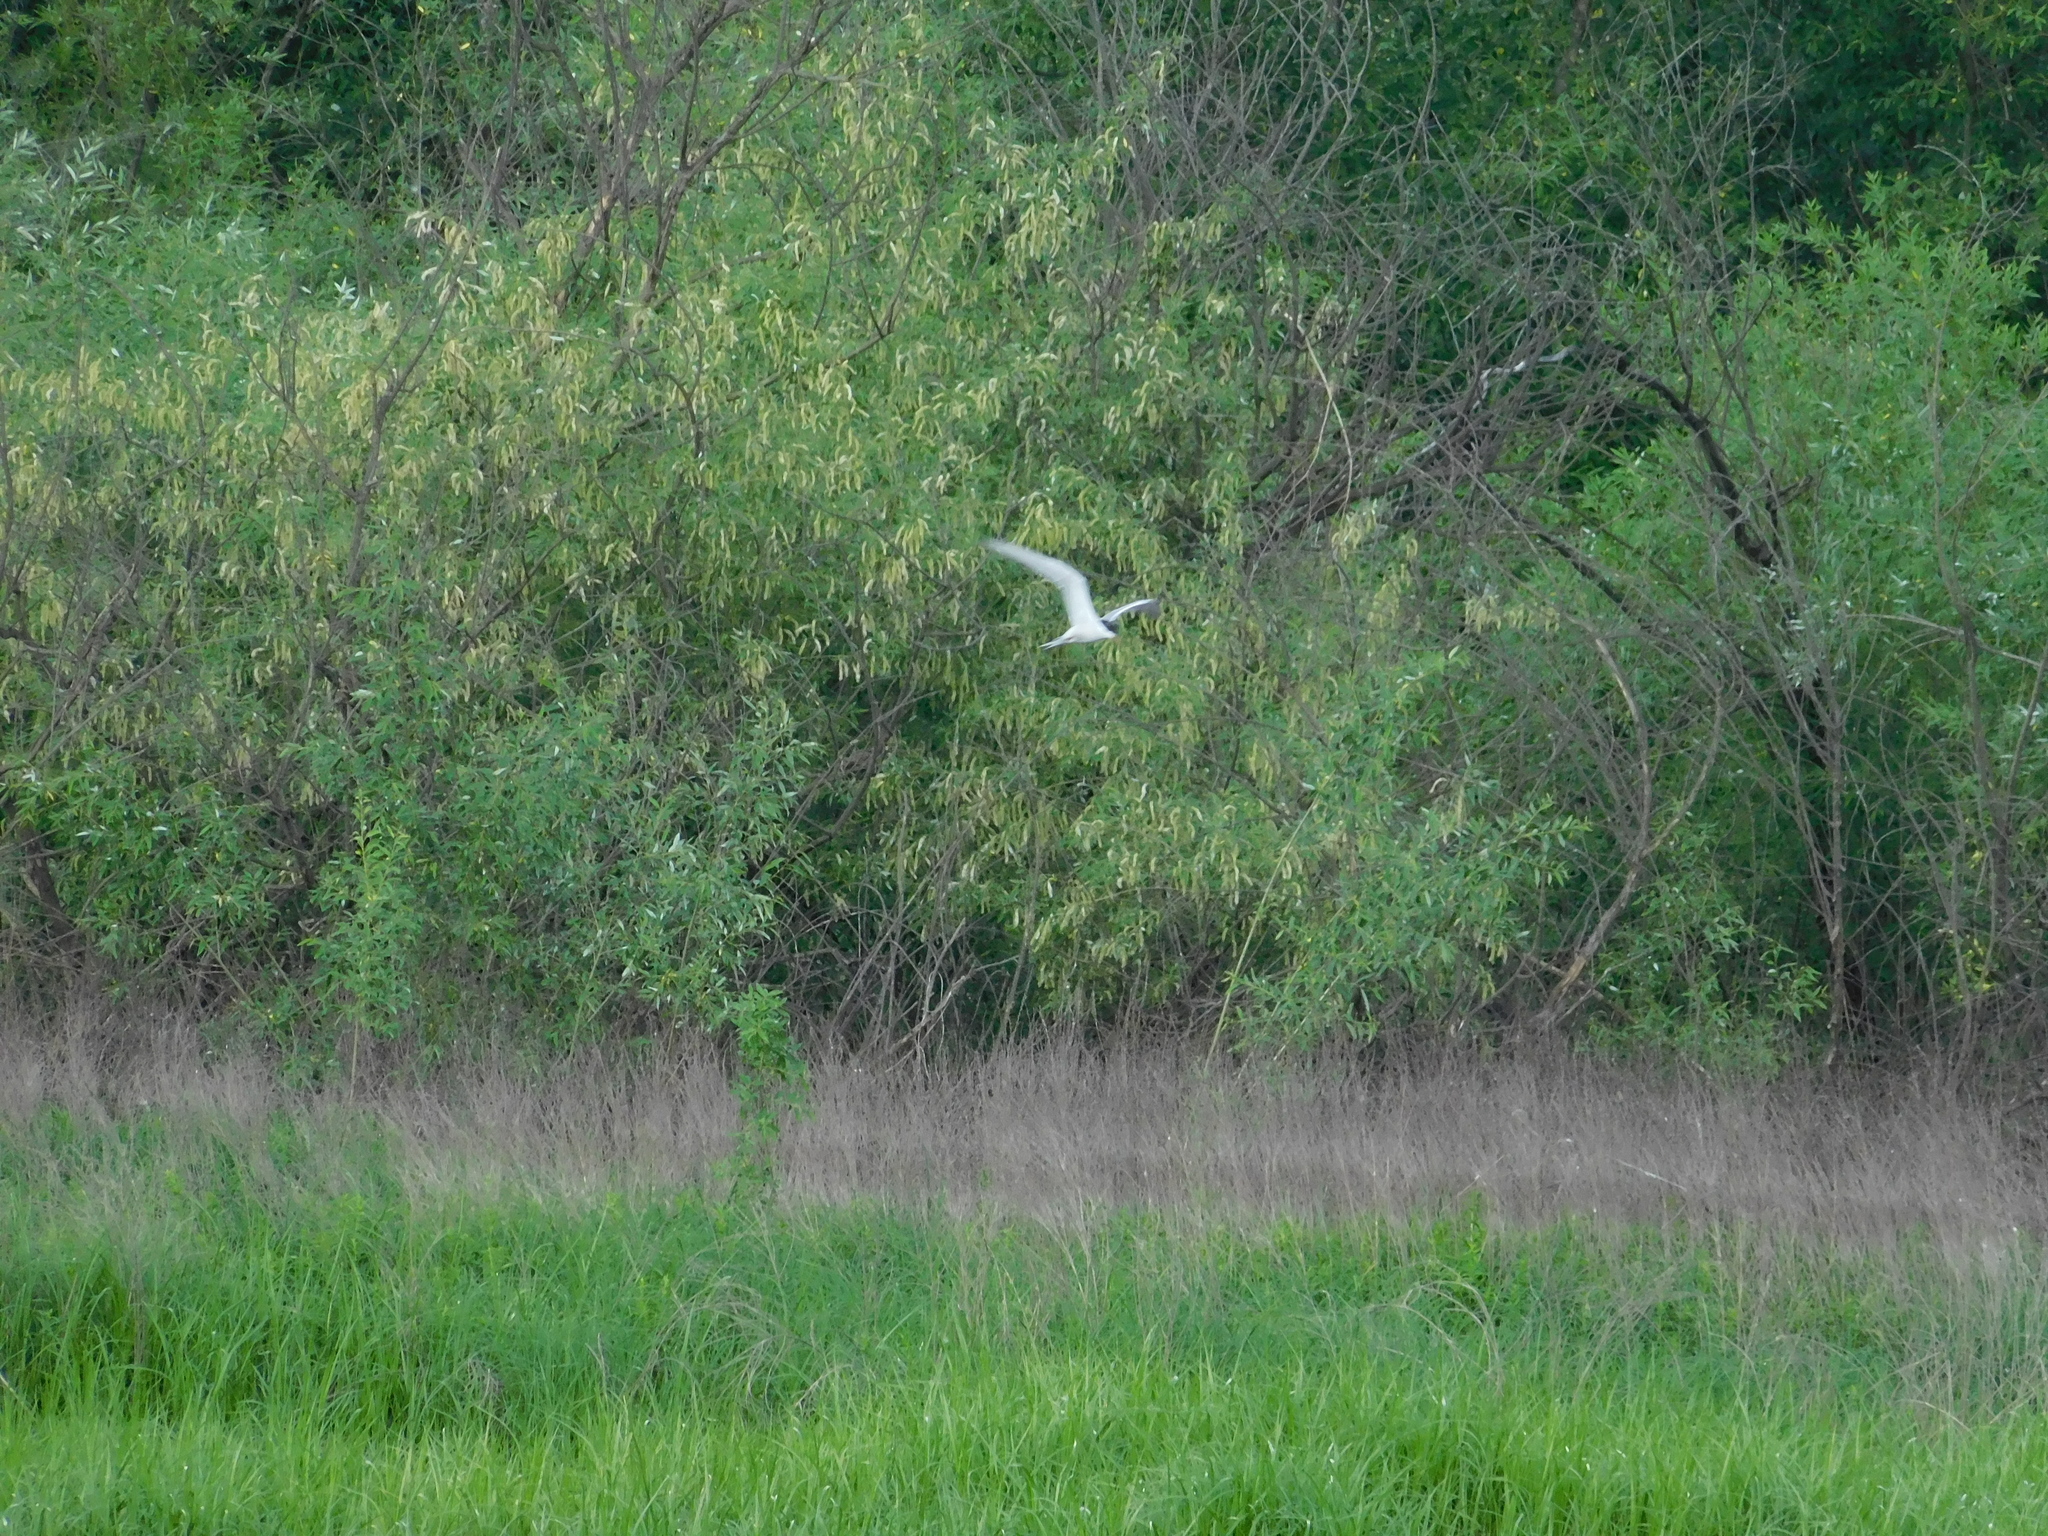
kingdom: Animalia
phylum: Chordata
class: Aves
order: Charadriiformes
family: Laridae
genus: Sterna
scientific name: Sterna hirundo
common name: Common tern
